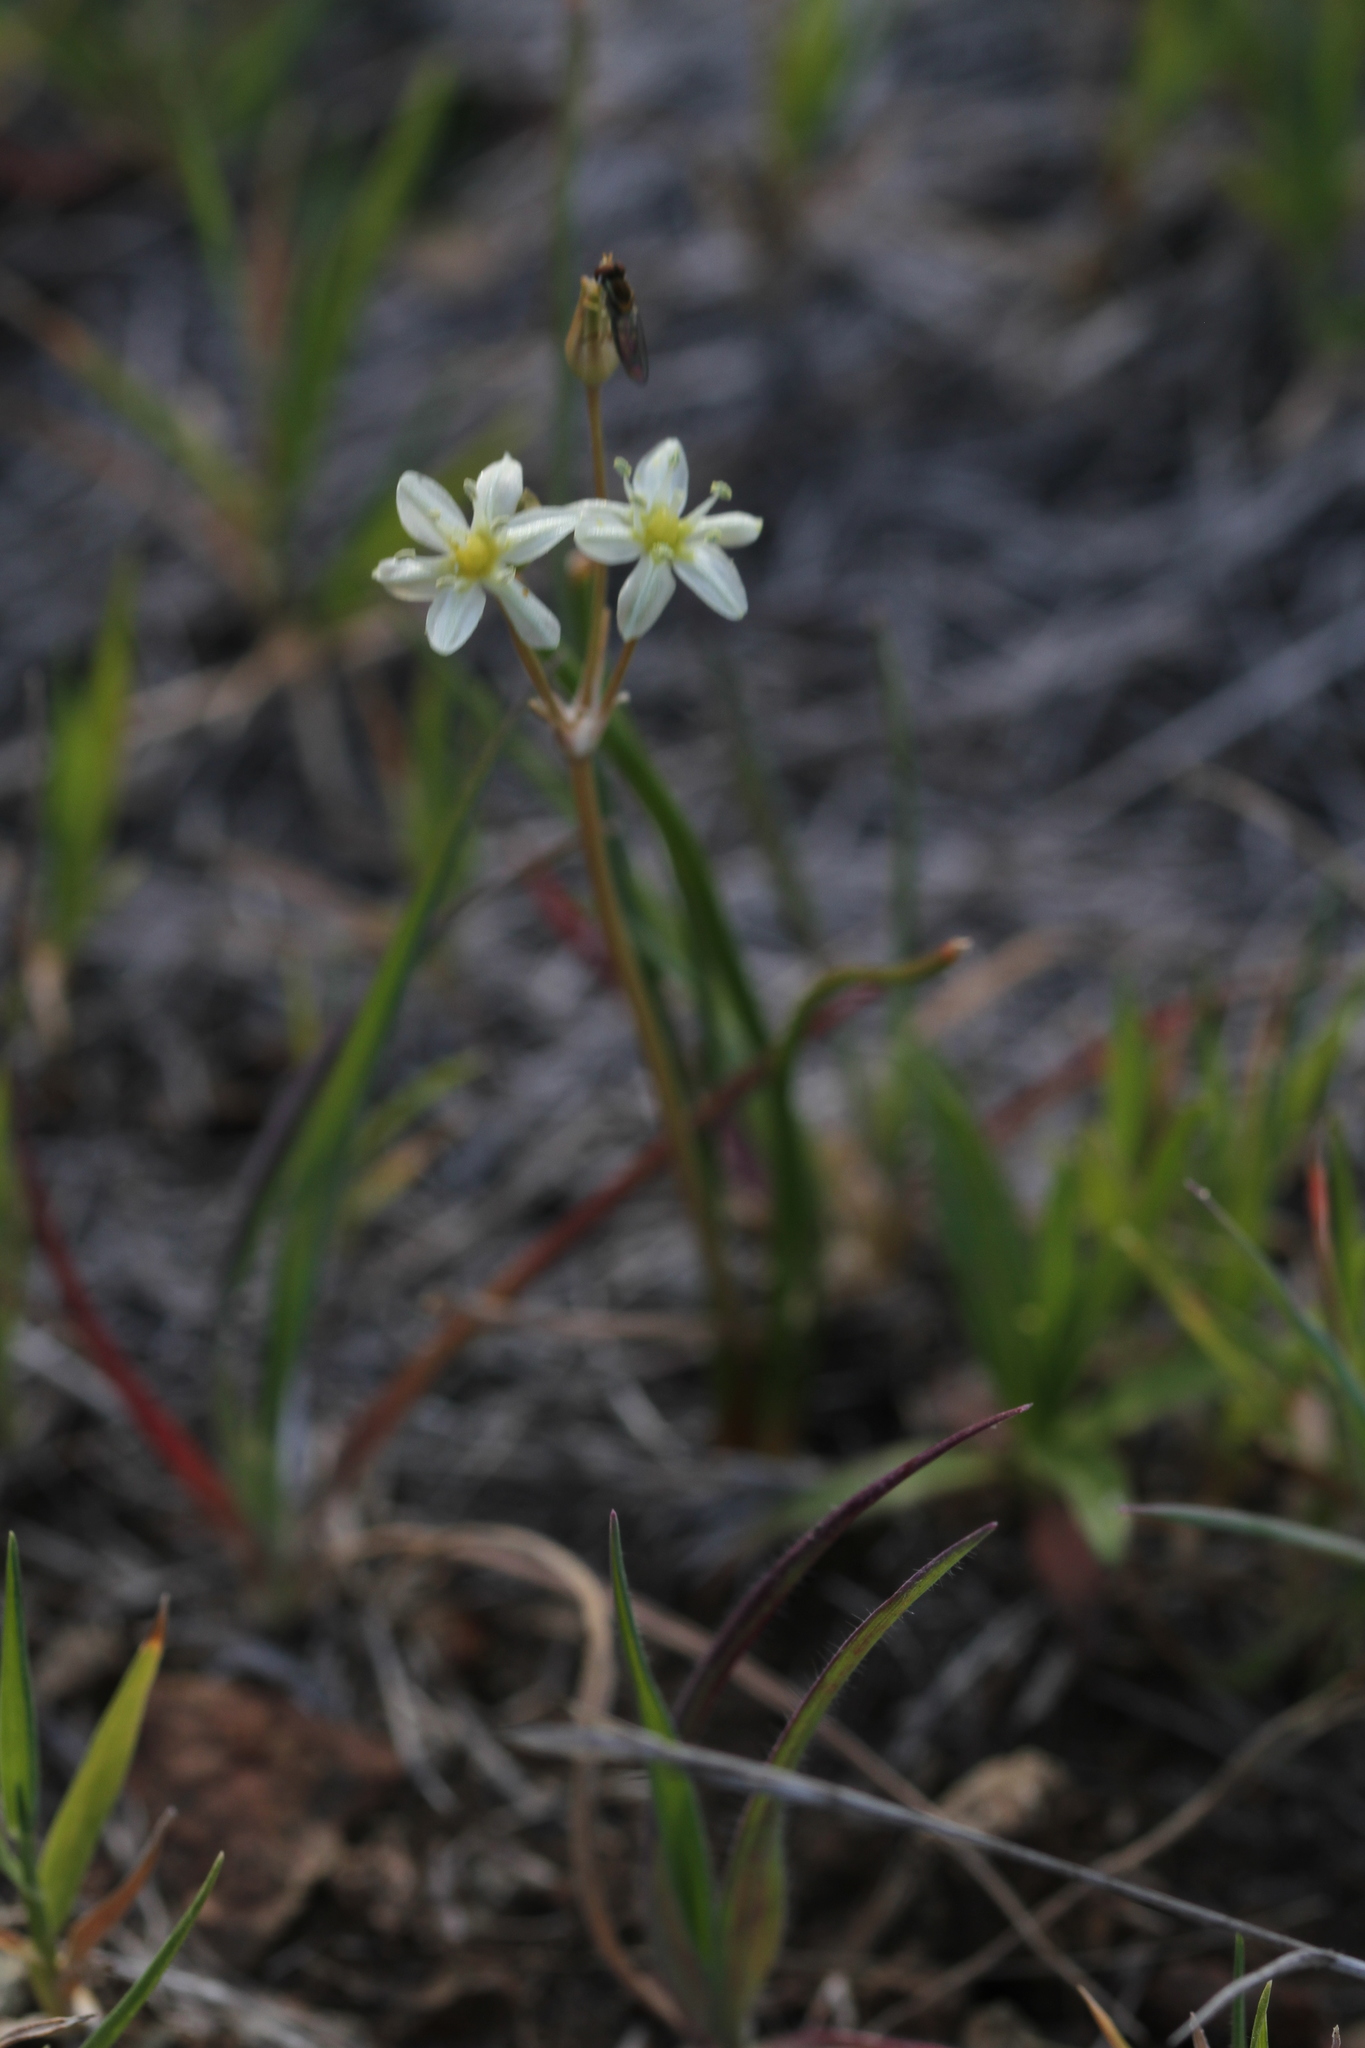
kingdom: Plantae
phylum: Tracheophyta
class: Liliopsida
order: Asparagales
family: Asparagaceae
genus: Muilla
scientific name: Muilla maritima
